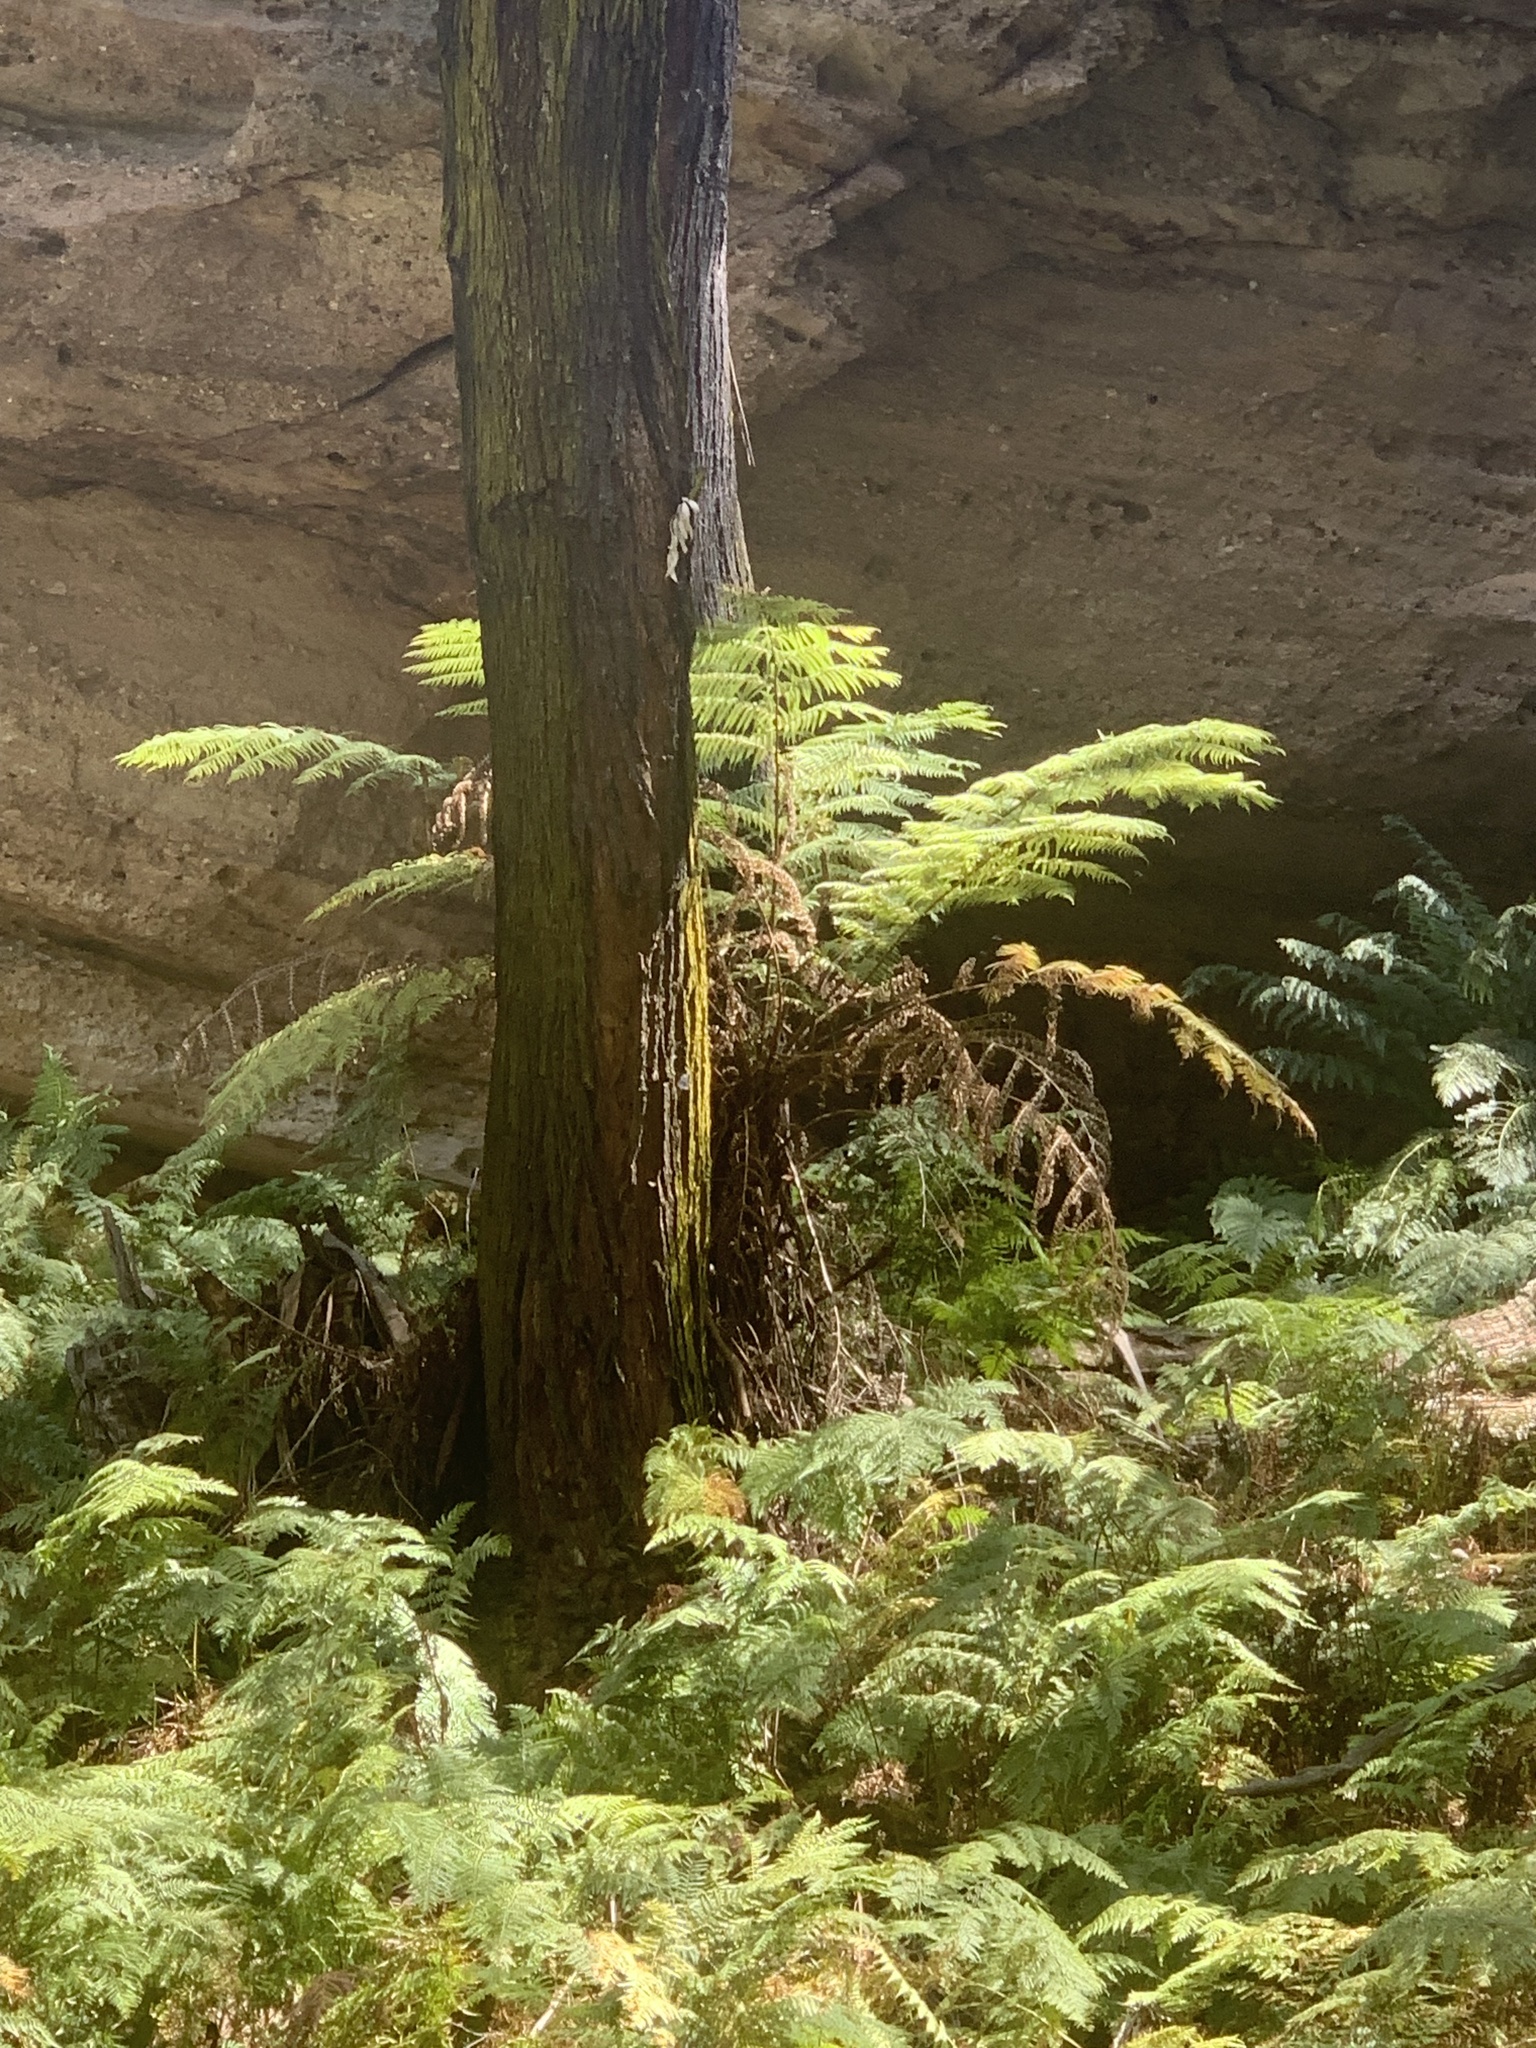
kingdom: Plantae
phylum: Tracheophyta
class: Polypodiopsida
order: Cyatheales
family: Cyatheaceae
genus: Alsophila
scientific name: Alsophila australis
